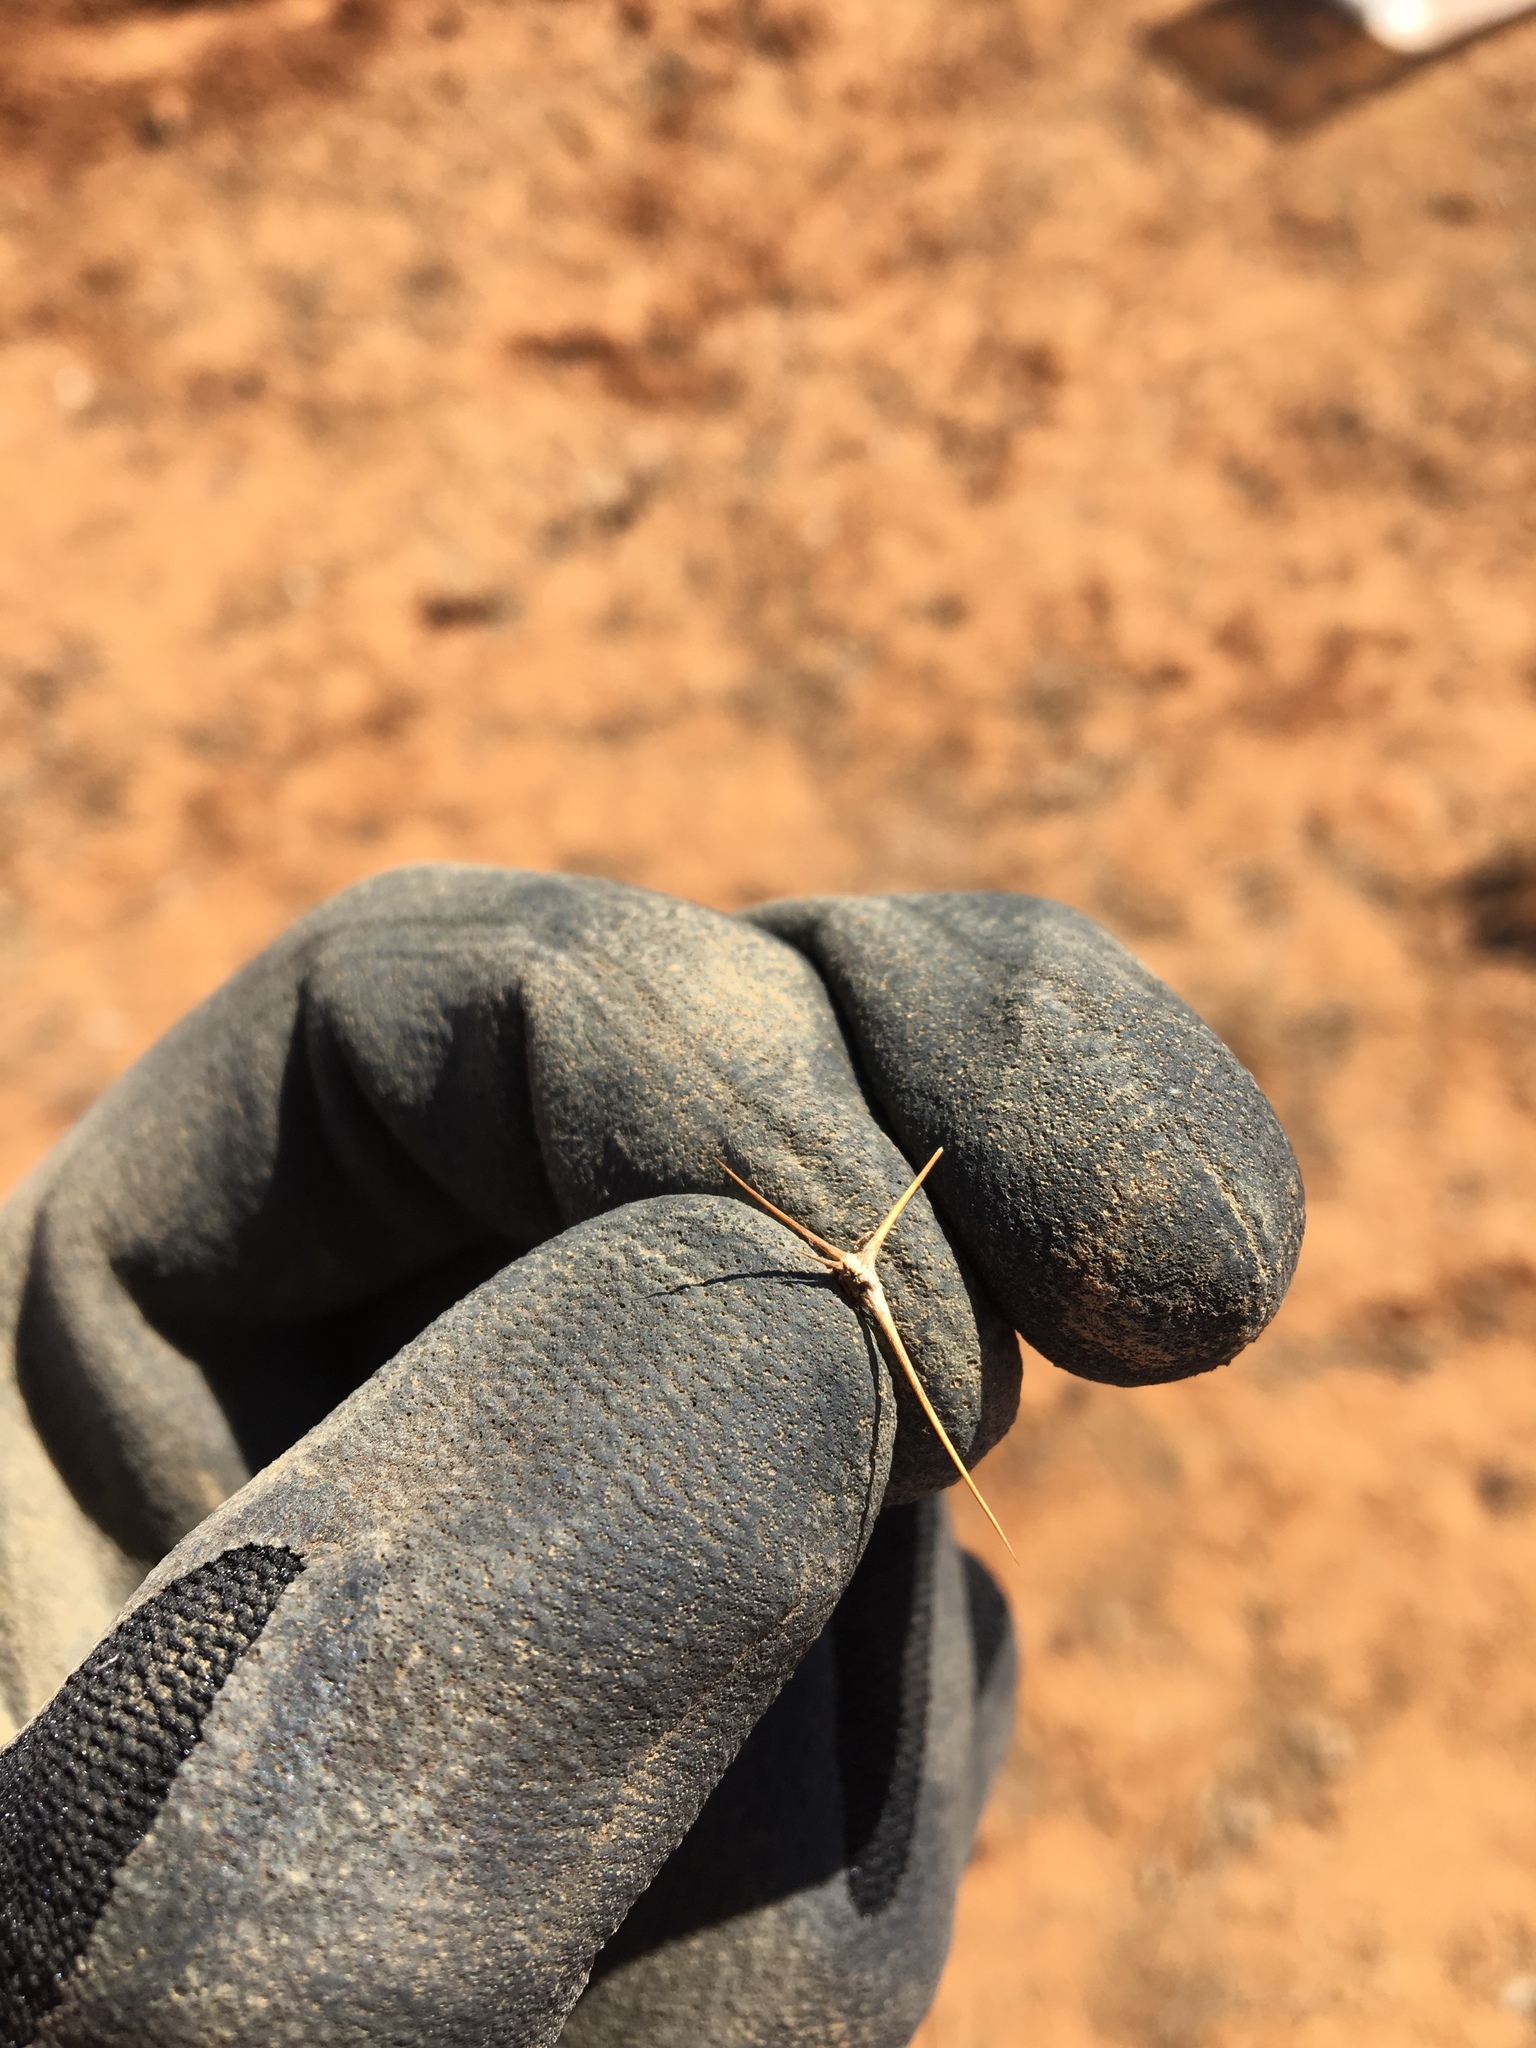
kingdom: Plantae
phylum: Tracheophyta
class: Magnoliopsida
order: Caryophyllales
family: Amaranthaceae
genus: Sclerolaena
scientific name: Sclerolaena longicuspis
